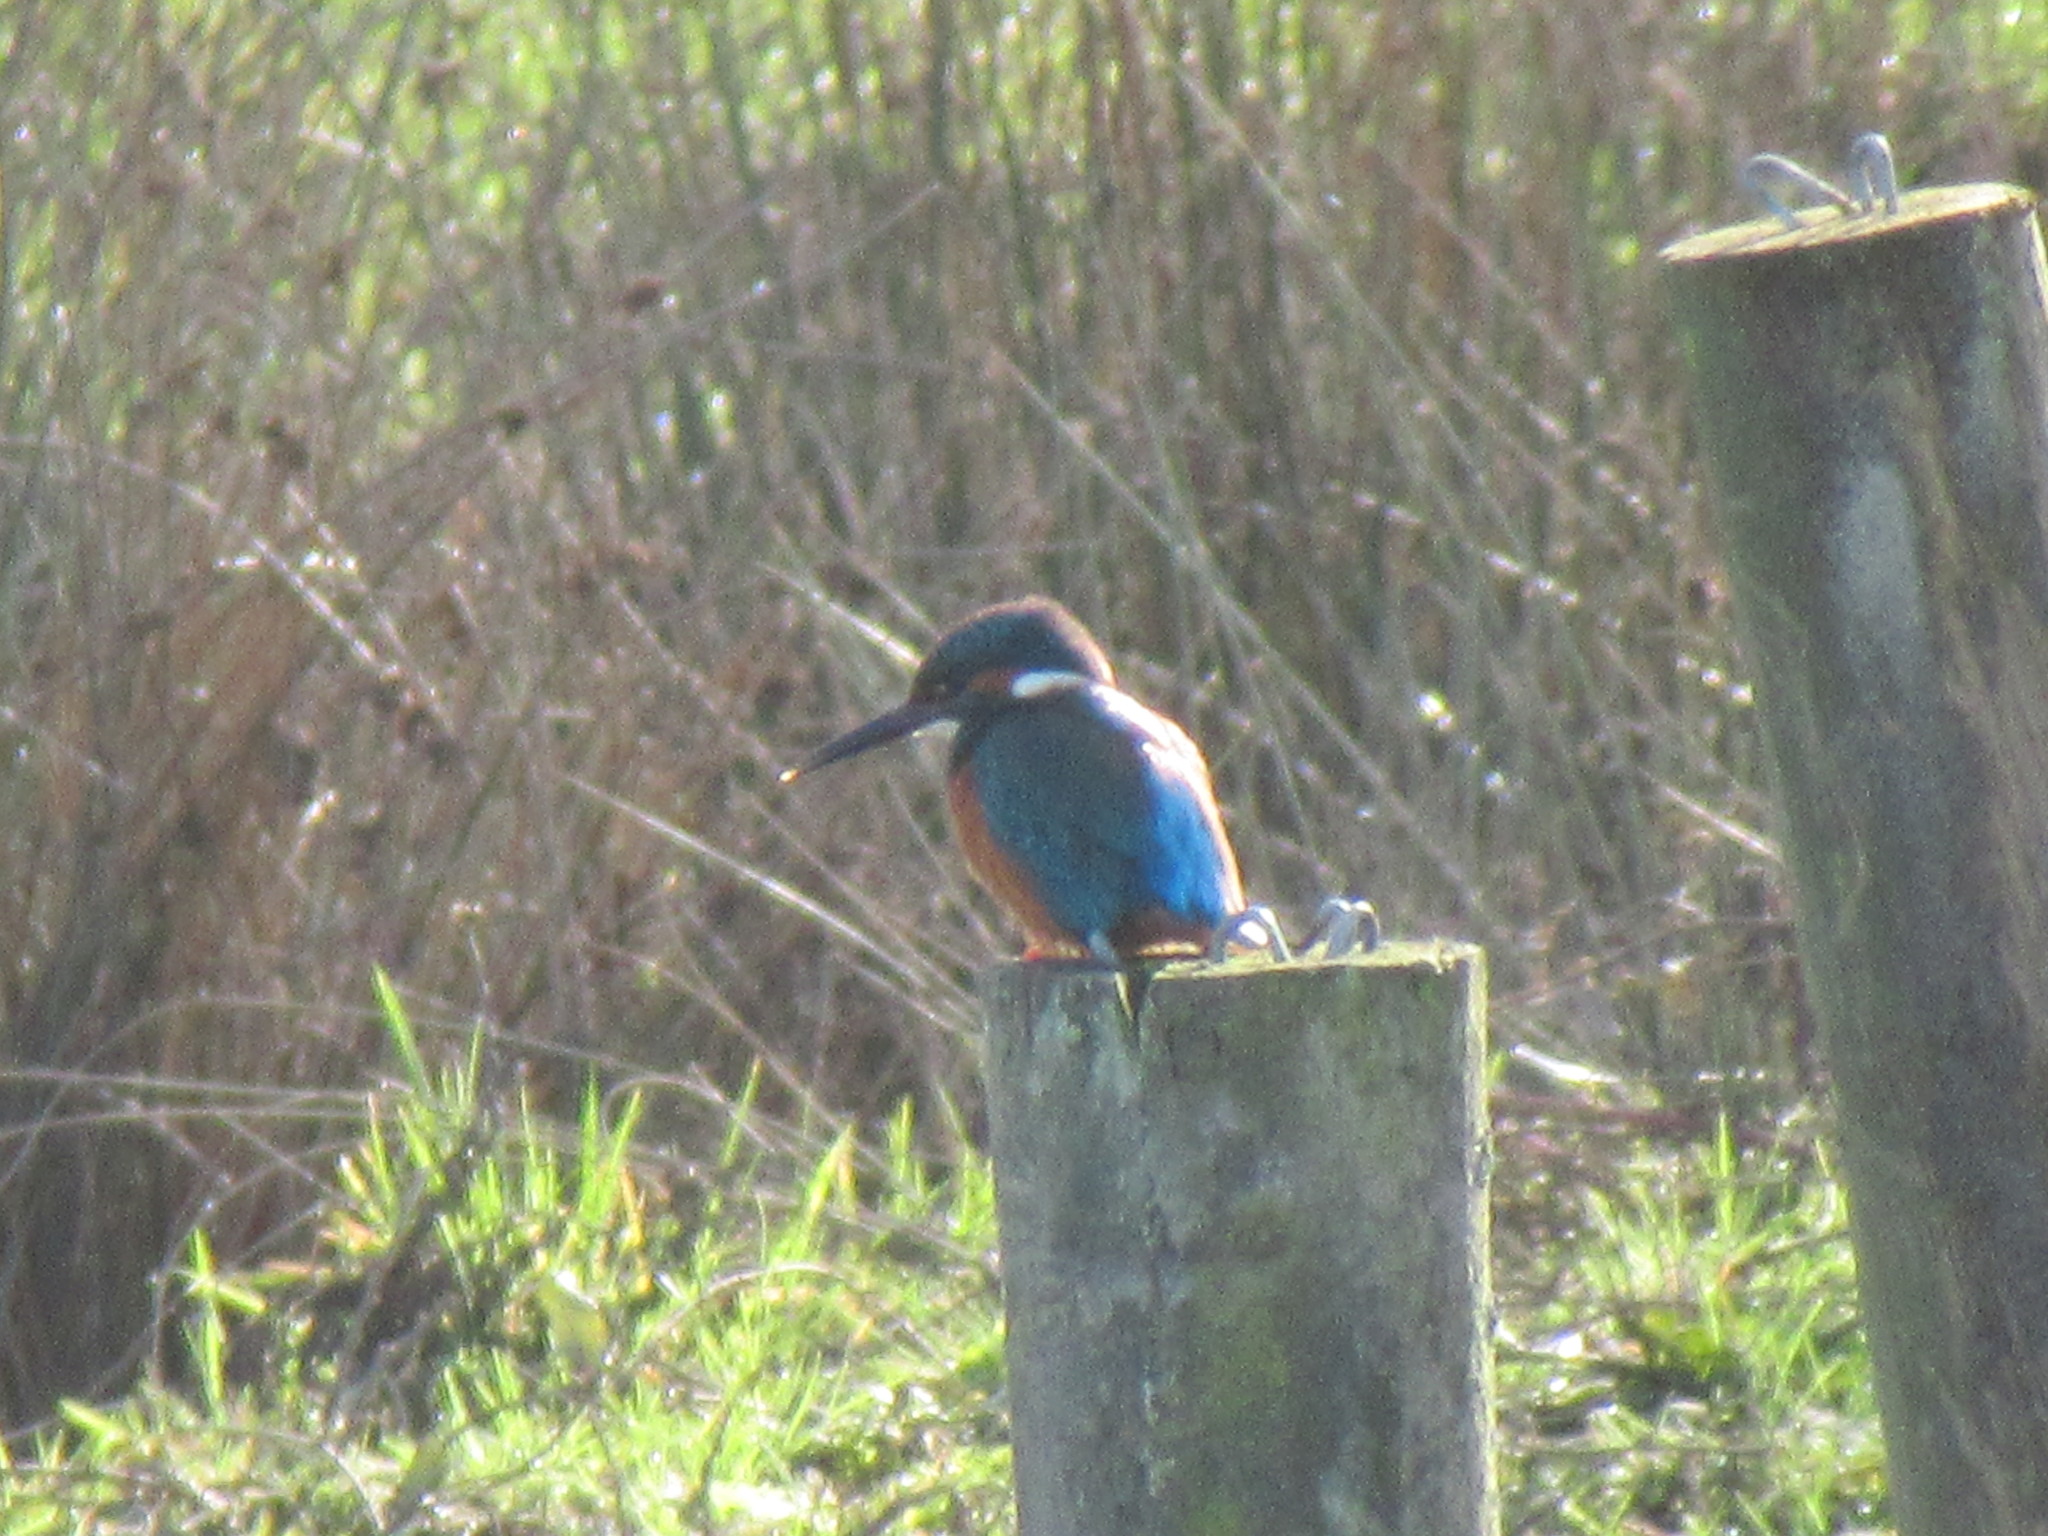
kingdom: Animalia
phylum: Chordata
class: Aves
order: Coraciiformes
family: Alcedinidae
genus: Alcedo
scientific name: Alcedo atthis
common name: Common kingfisher
